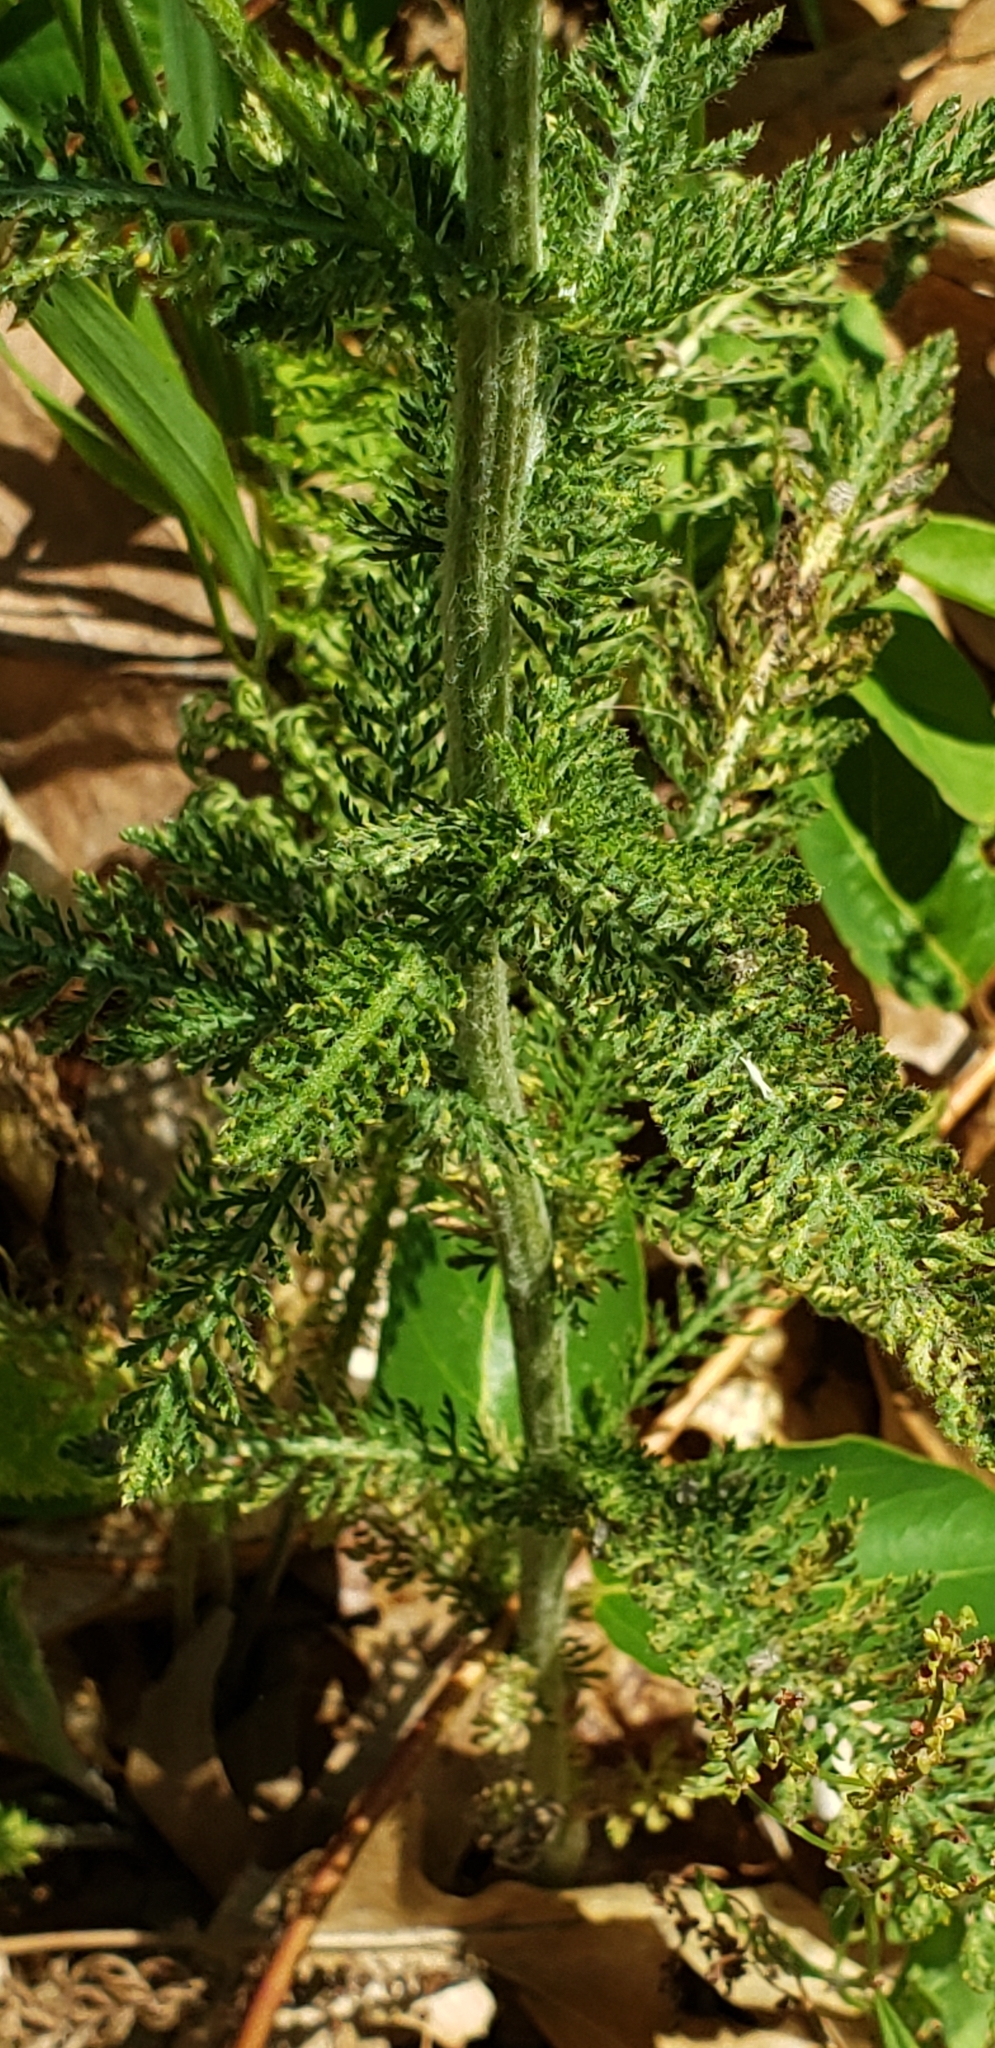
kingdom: Plantae
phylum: Tracheophyta
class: Magnoliopsida
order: Asterales
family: Asteraceae
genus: Achillea
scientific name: Achillea millefolium
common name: Yarrow
